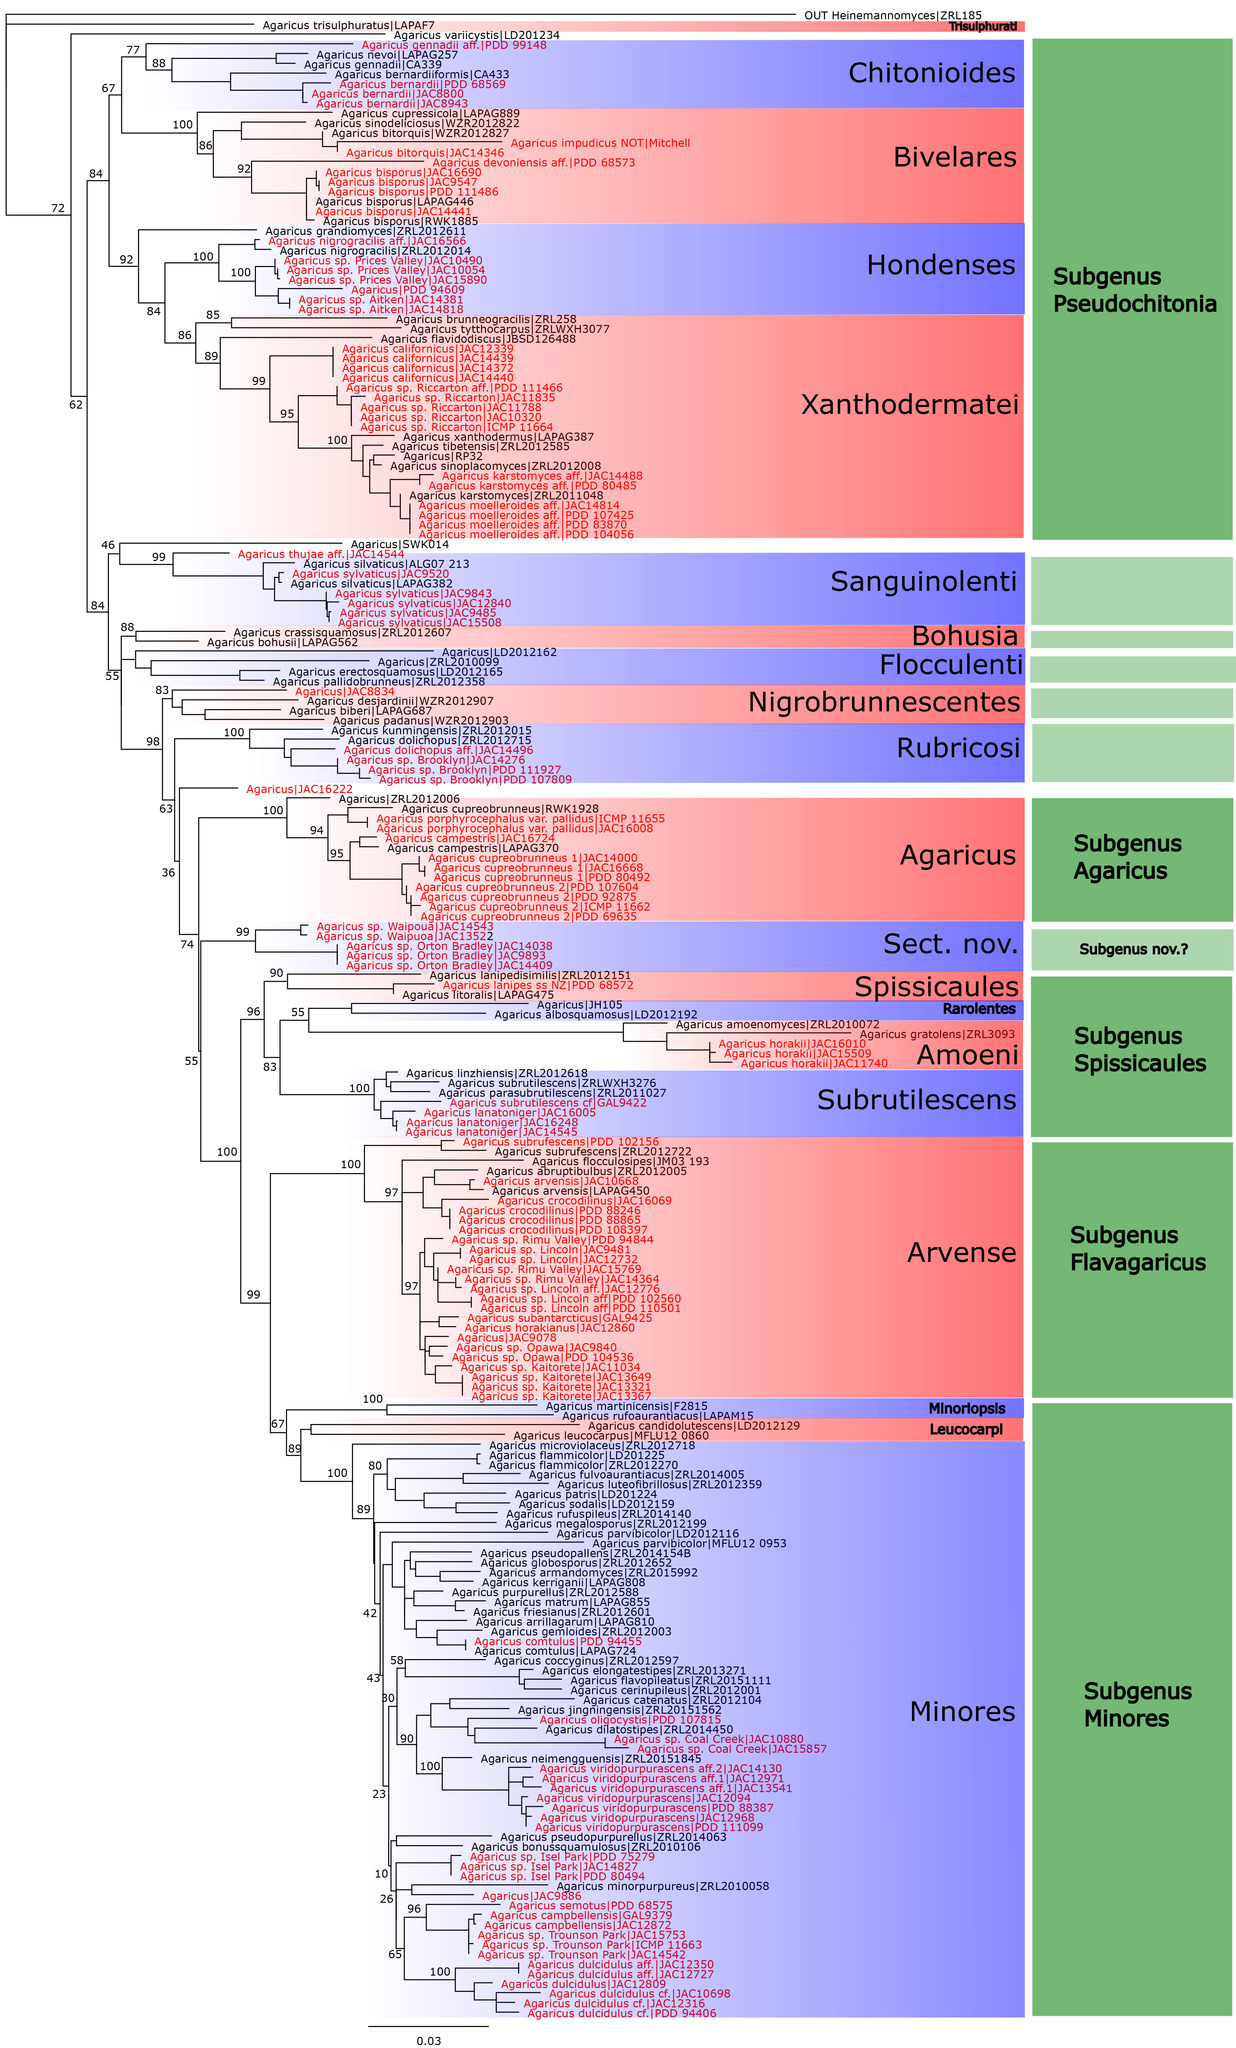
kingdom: Fungi
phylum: Basidiomycota
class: Agaricomycetes
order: Agaricales
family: Agaricaceae
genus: Agaricus
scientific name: Agaricus arvensis
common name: Horse mushroom
